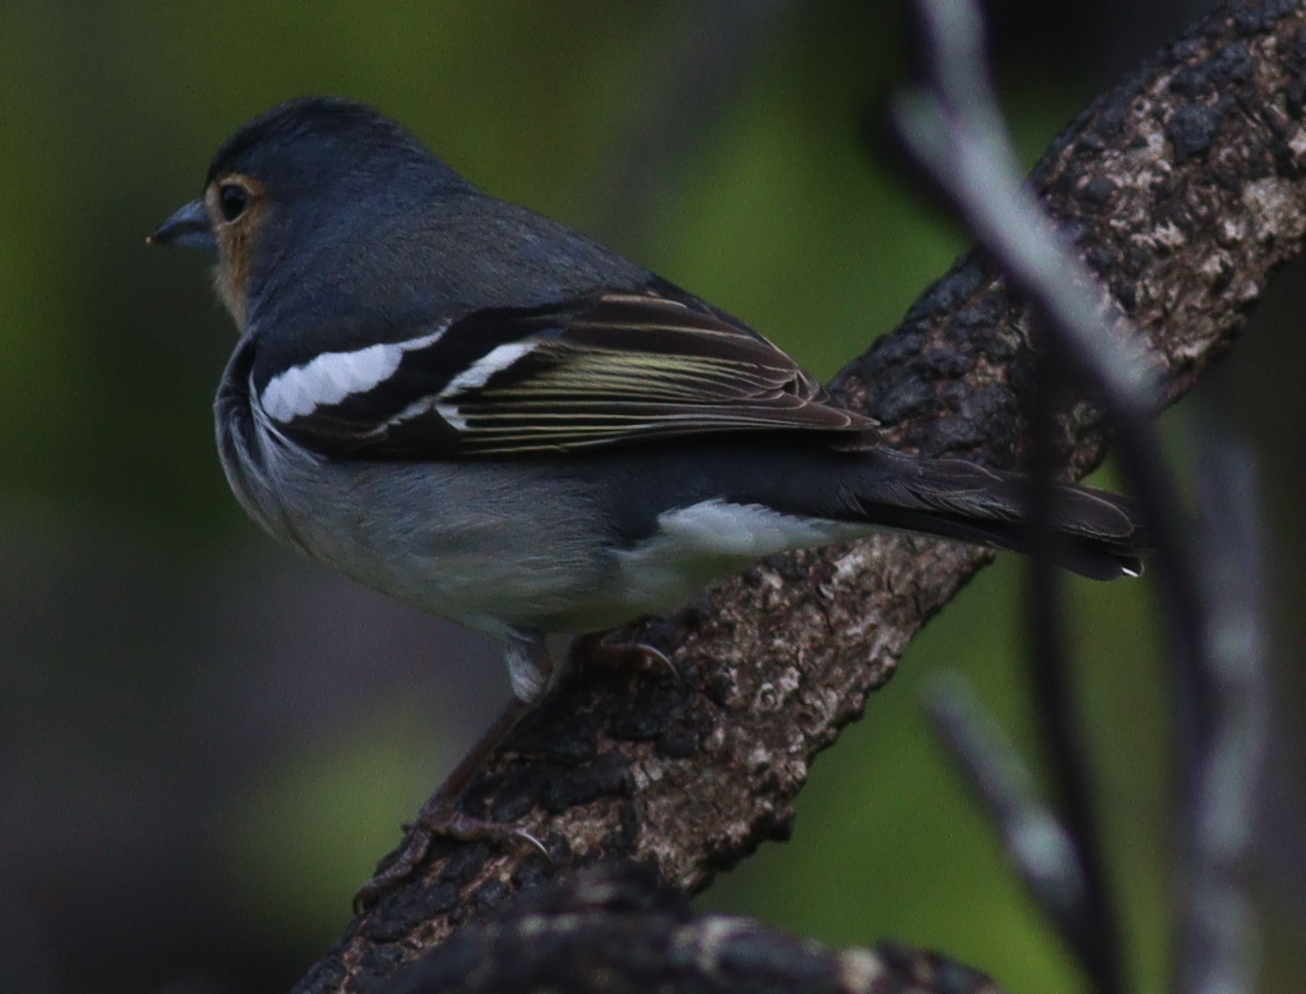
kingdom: Animalia
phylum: Chordata
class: Aves
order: Passeriformes
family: Fringillidae
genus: Fringilla
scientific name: Fringilla canariensis
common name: Canary islands chaffinch
